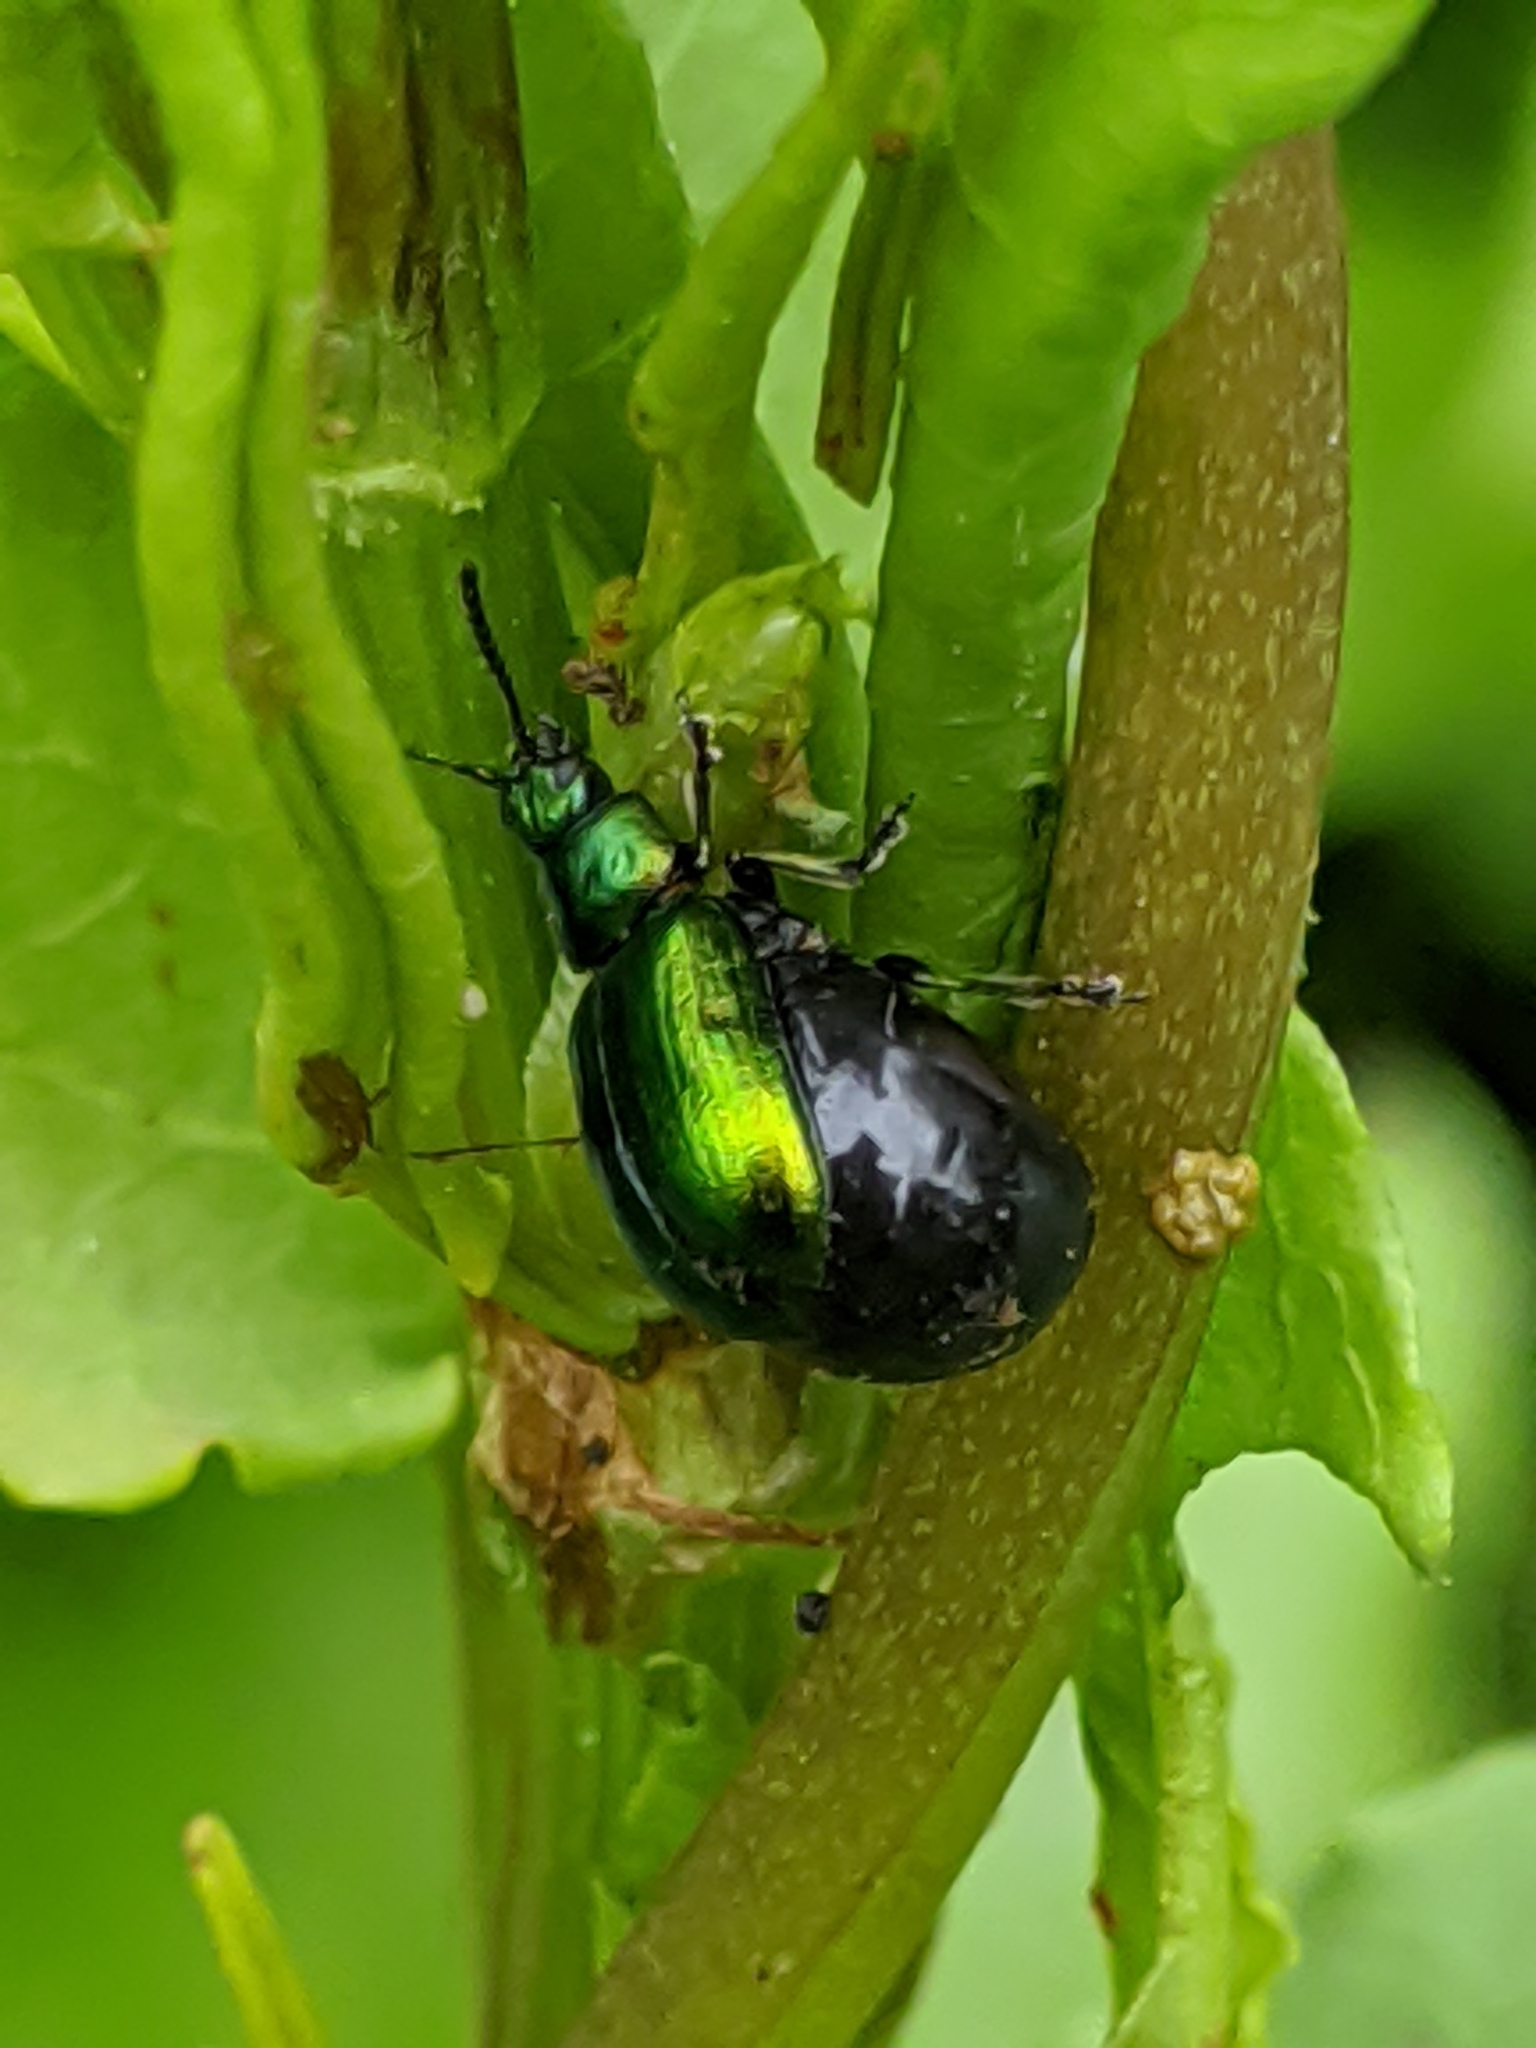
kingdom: Animalia
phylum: Arthropoda
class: Insecta
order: Coleoptera
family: Chrysomelidae
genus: Gastrophysa
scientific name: Gastrophysa cyanea
